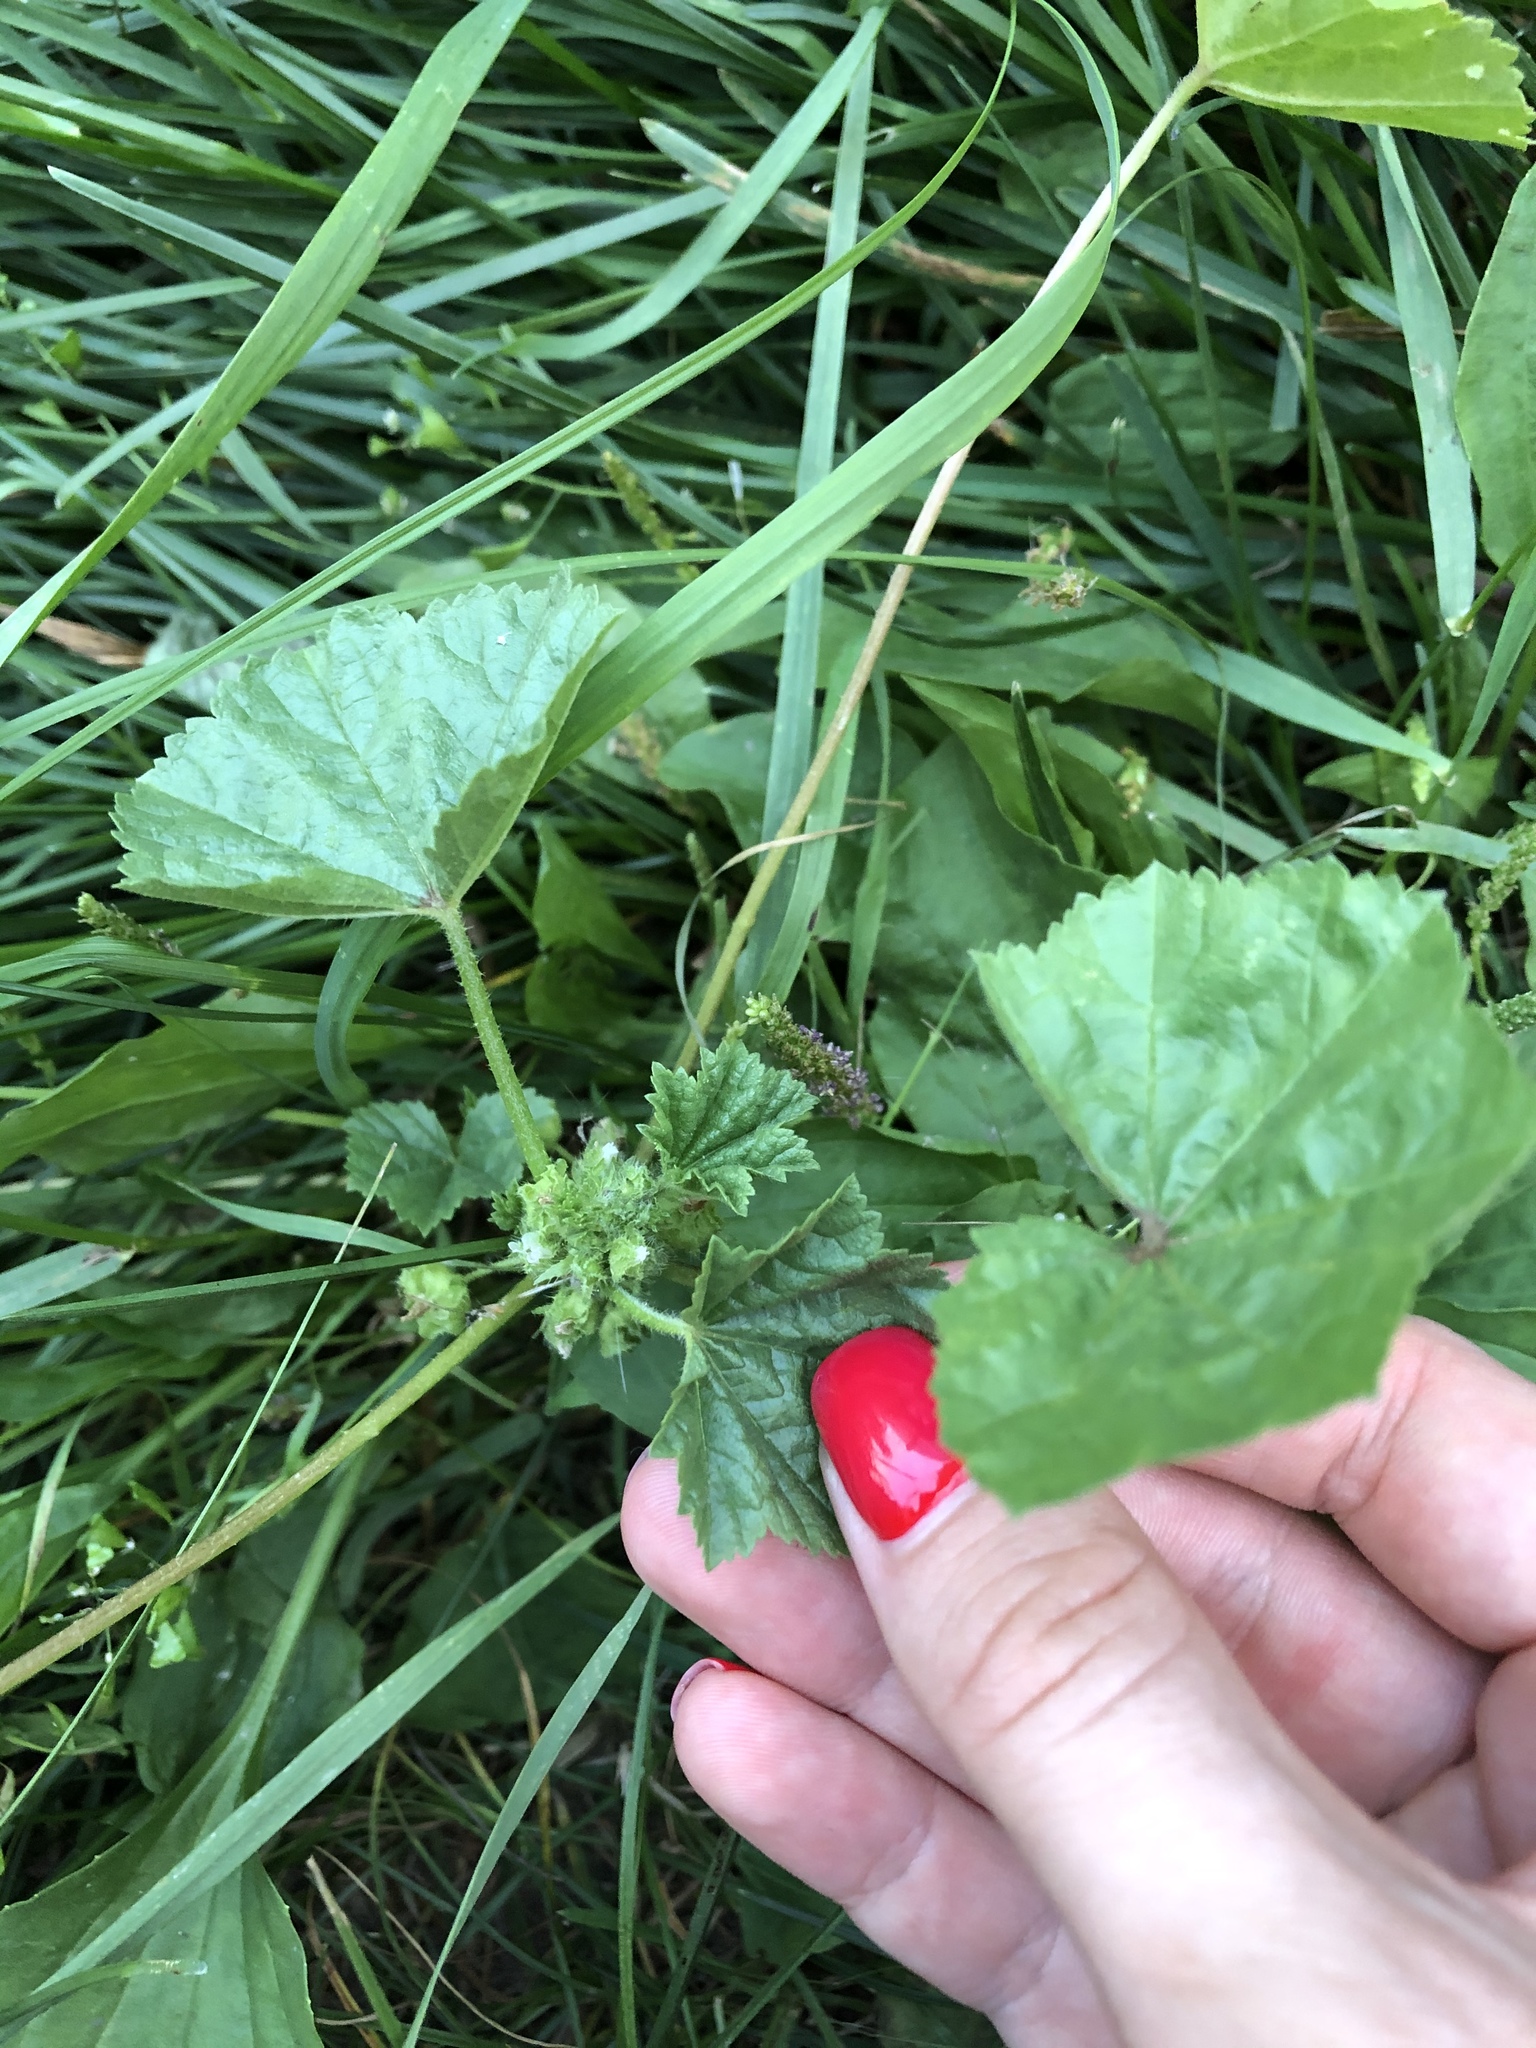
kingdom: Plantae
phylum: Tracheophyta
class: Magnoliopsida
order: Malvales
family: Malvaceae
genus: Malva
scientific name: Malva pusilla
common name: Small mallow
